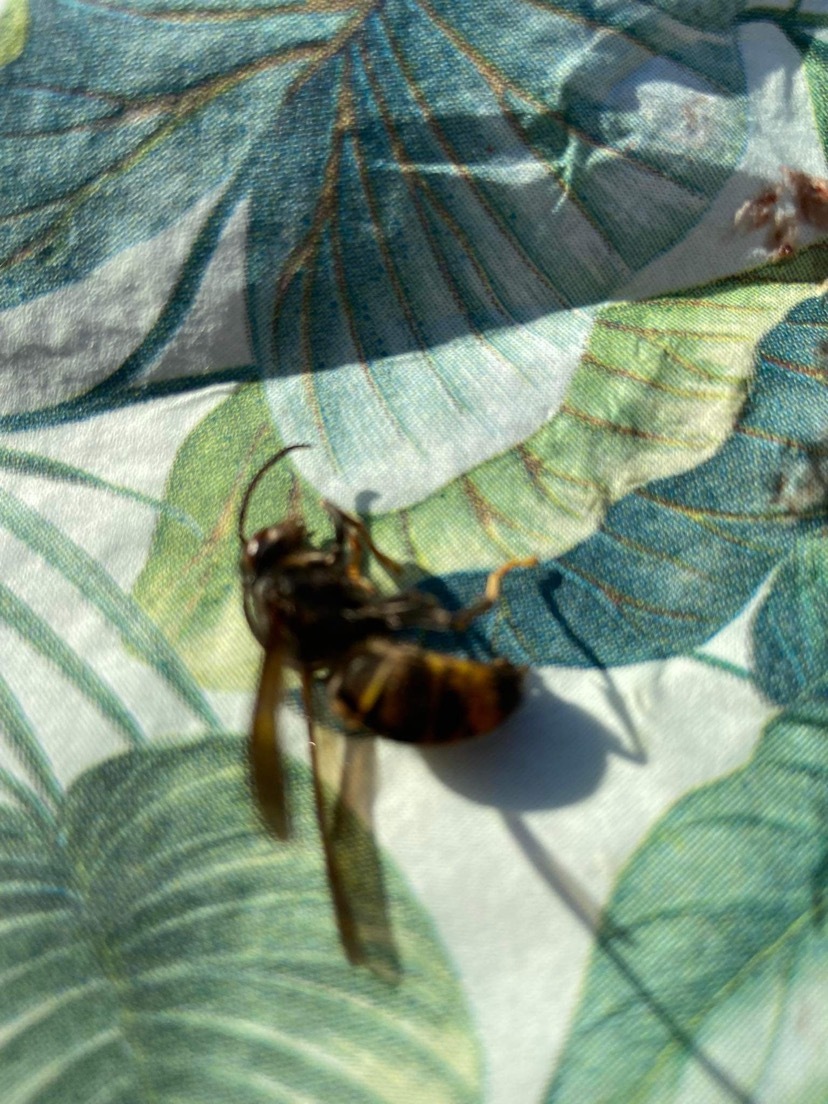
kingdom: Animalia
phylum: Arthropoda
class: Insecta
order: Hymenoptera
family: Vespidae
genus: Vespa
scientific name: Vespa velutina
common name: Asian hornet
